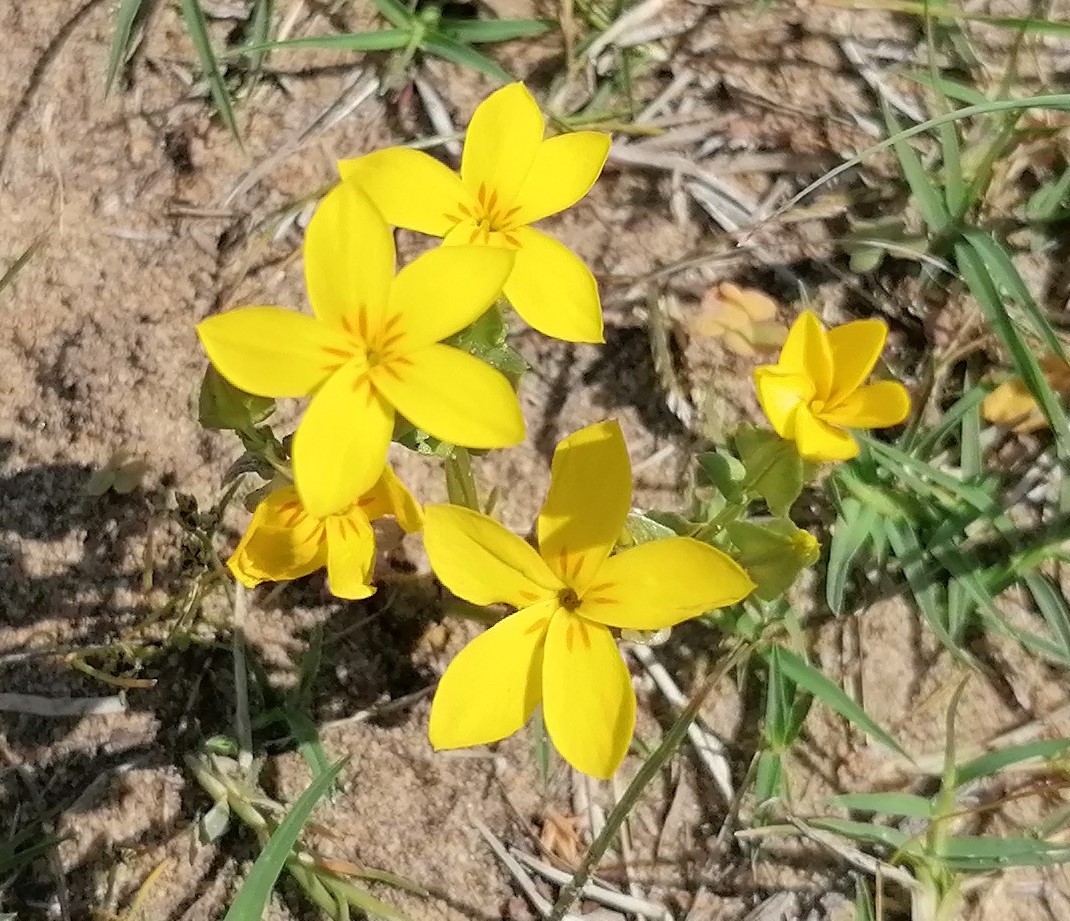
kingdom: Plantae
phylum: Tracheophyta
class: Magnoliopsida
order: Gentianales
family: Gentianaceae
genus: Sebaea
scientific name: Sebaea exacoides
